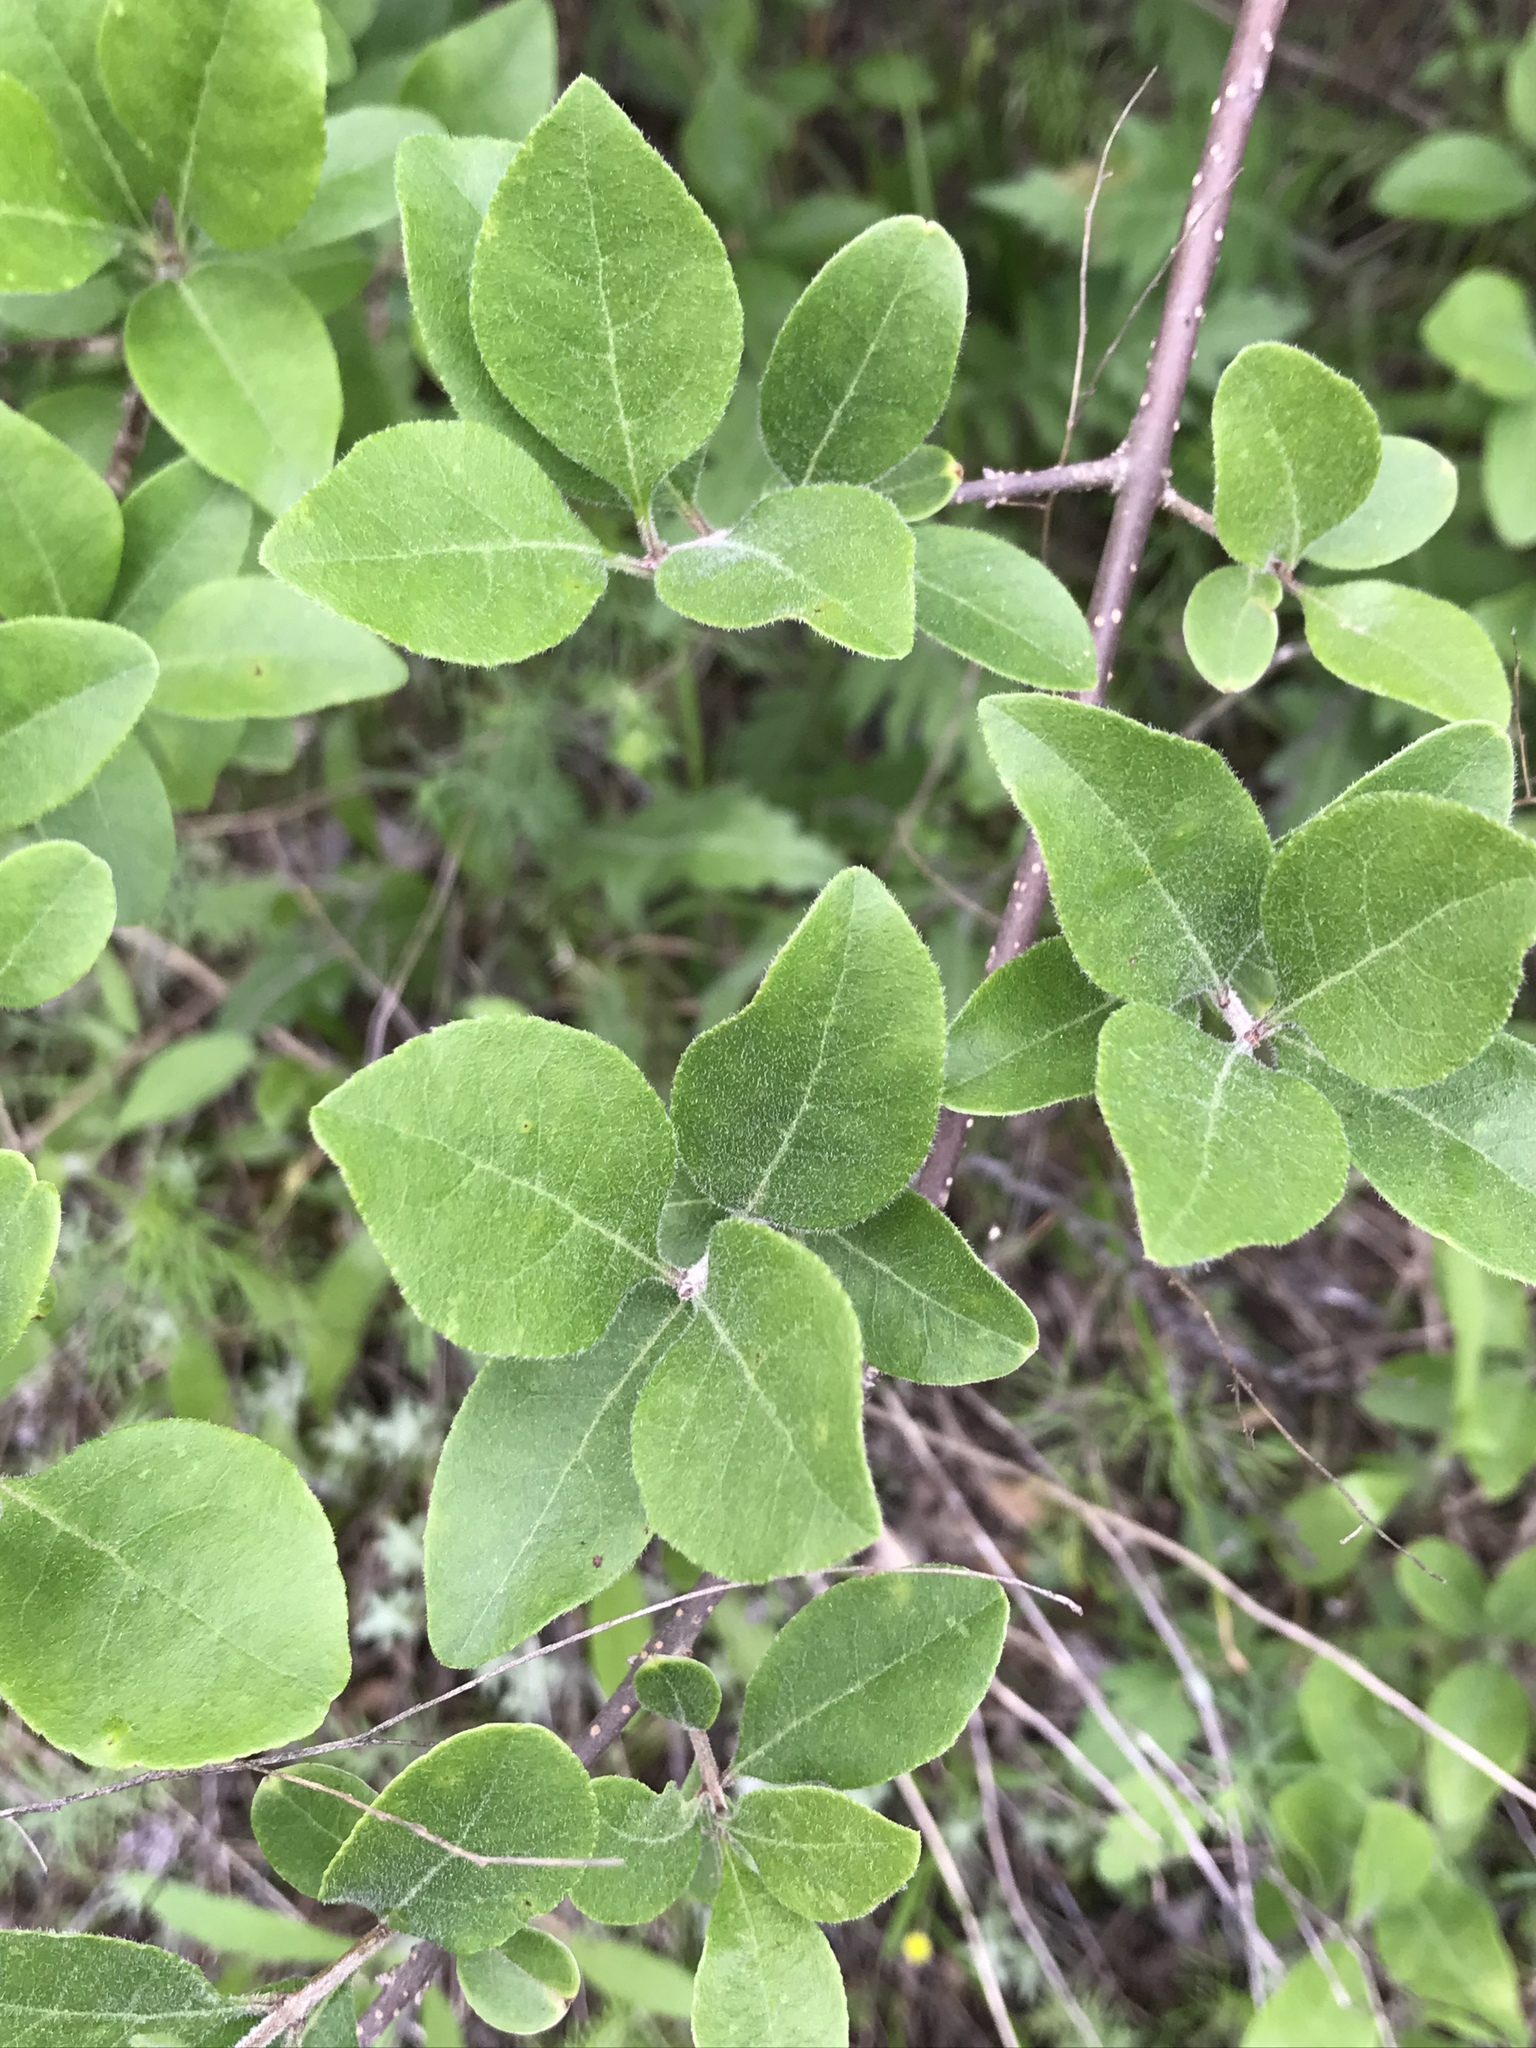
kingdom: Plantae
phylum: Tracheophyta
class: Magnoliopsida
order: Lamiales
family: Oleaceae
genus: Forestiera
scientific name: Forestiera pubescens
